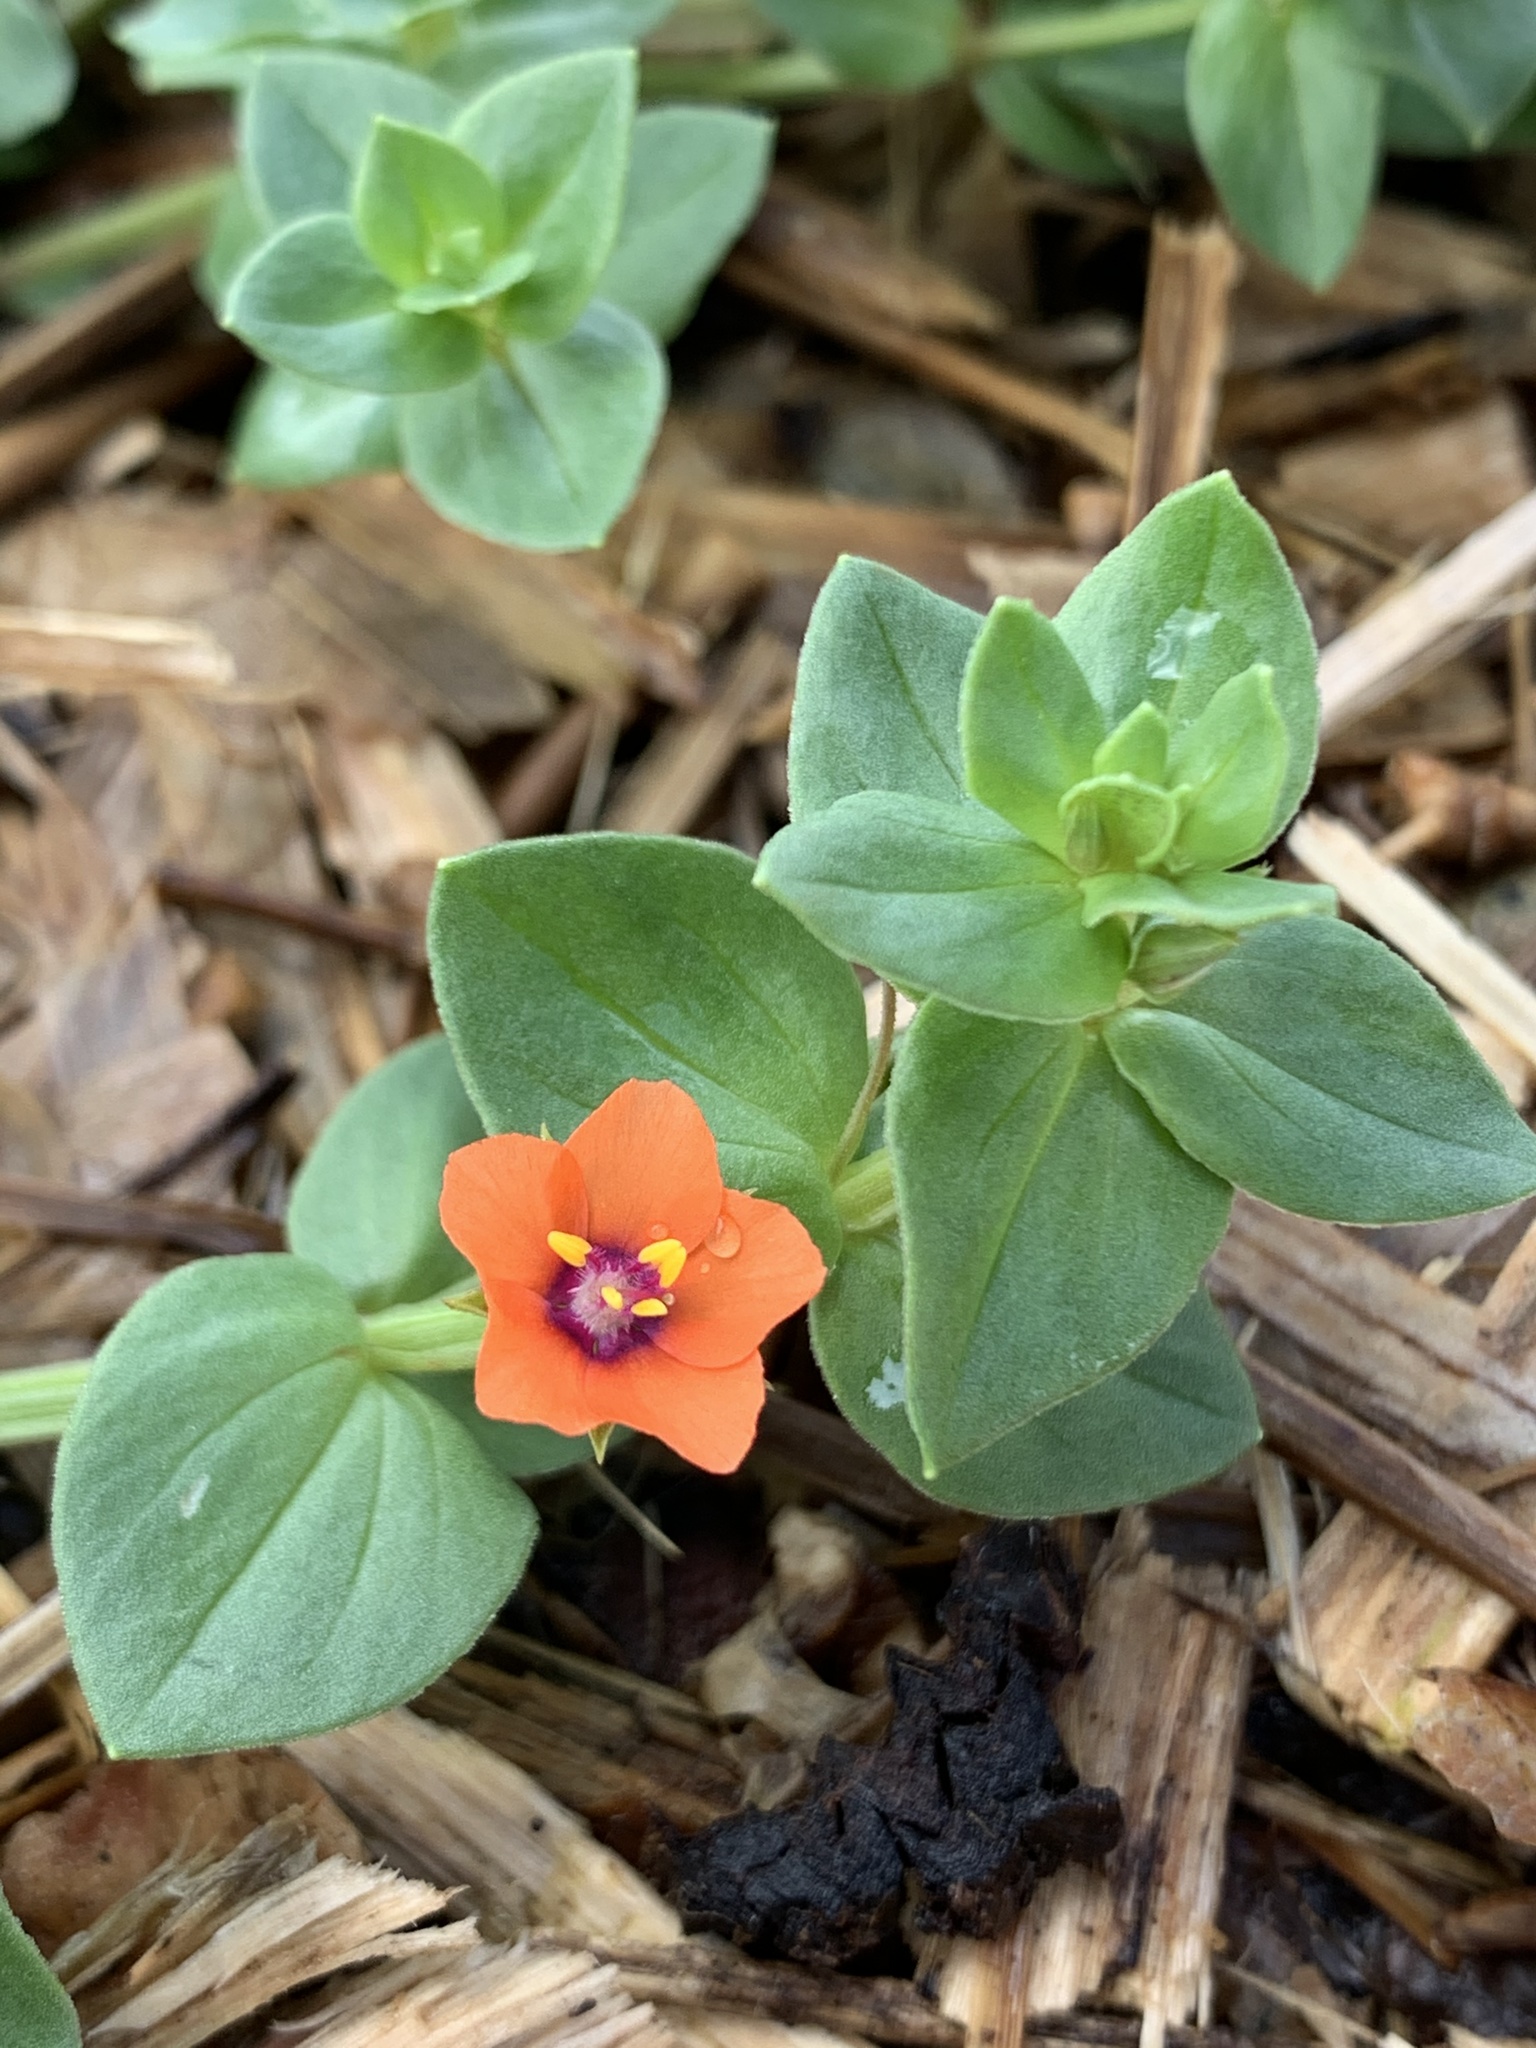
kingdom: Plantae
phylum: Tracheophyta
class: Magnoliopsida
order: Ericales
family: Primulaceae
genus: Lysimachia
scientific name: Lysimachia arvensis
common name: Scarlet pimpernel
